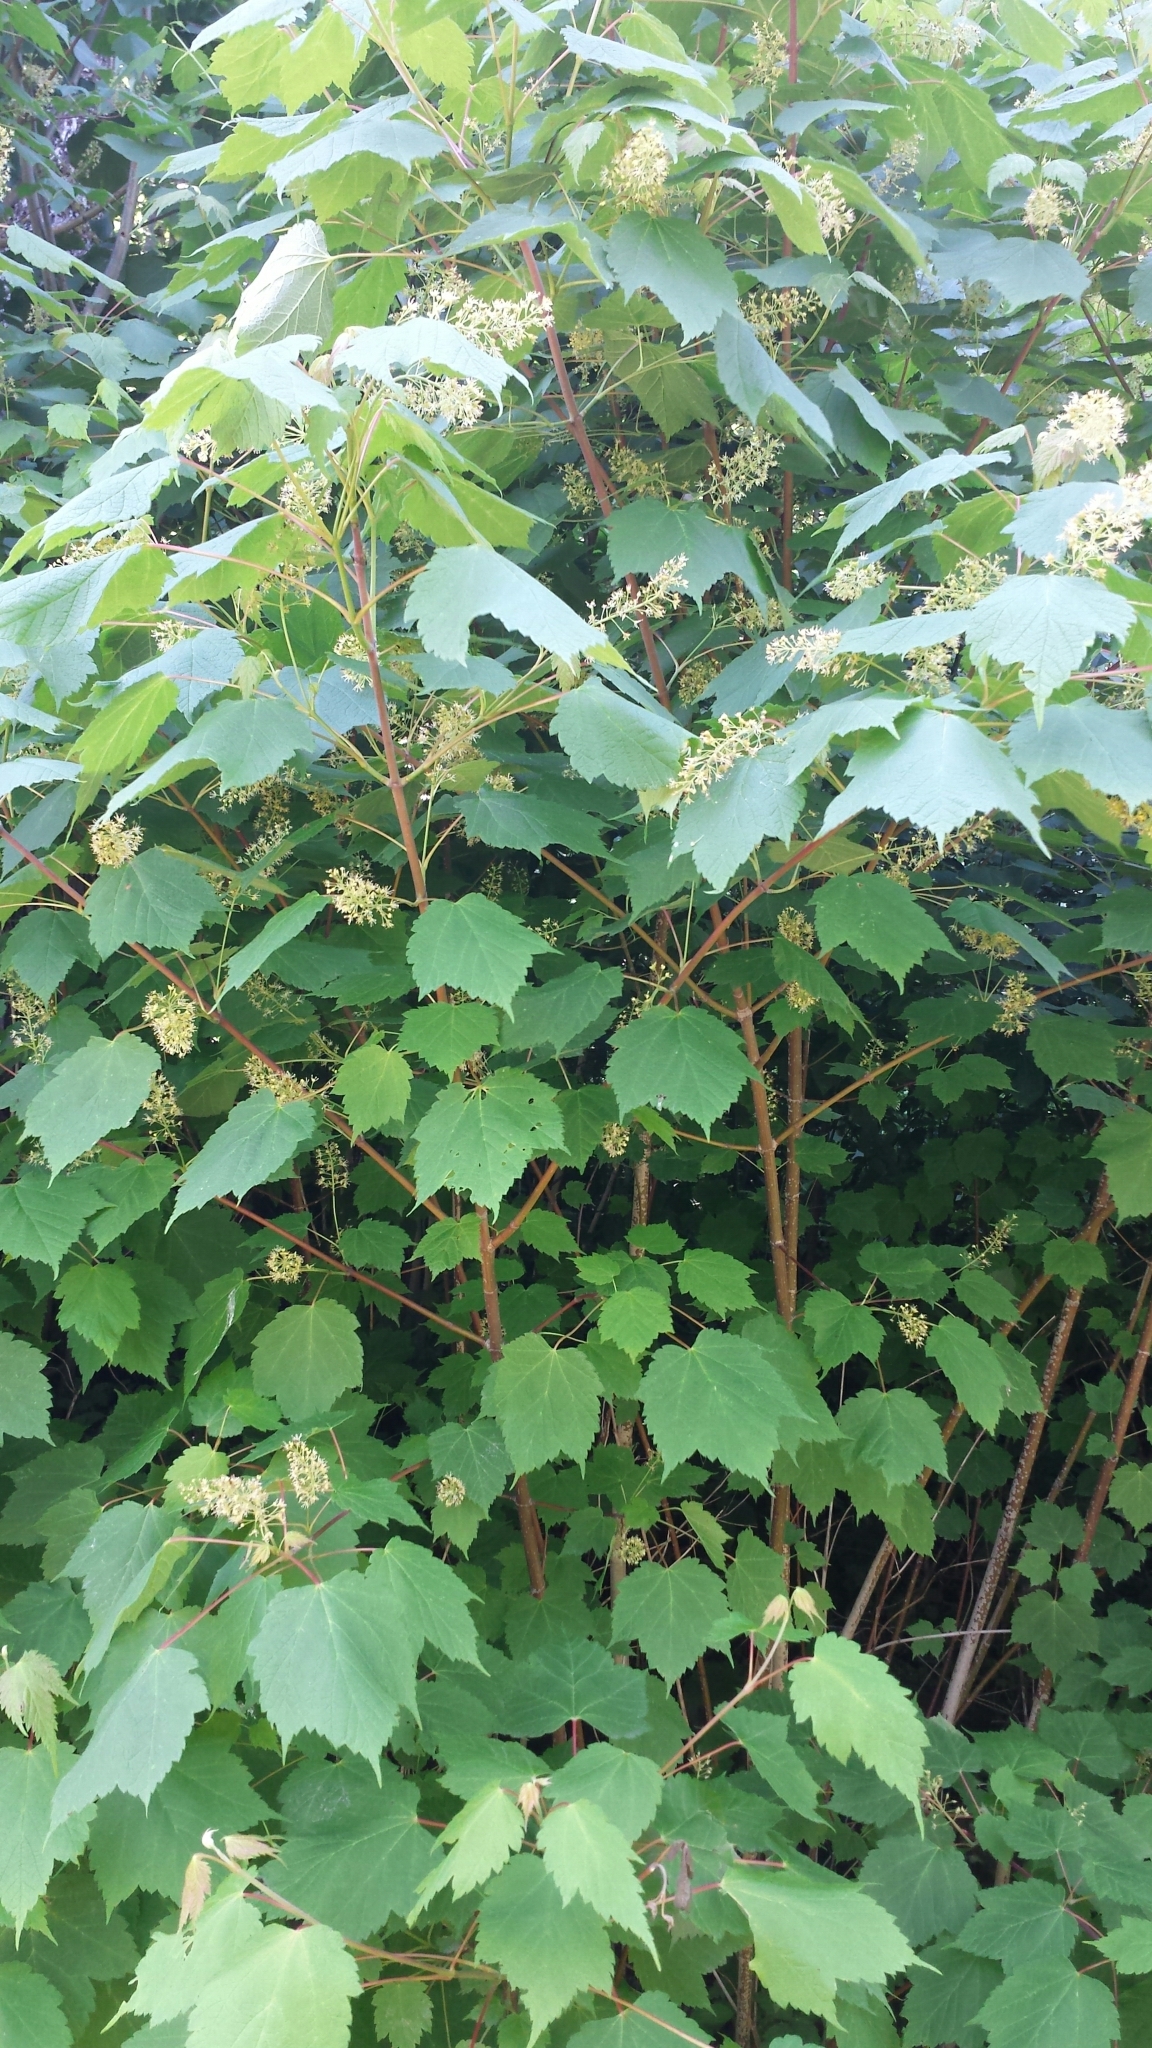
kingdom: Plantae
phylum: Tracheophyta
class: Magnoliopsida
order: Sapindales
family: Sapindaceae
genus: Acer
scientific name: Acer spicatum
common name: Mountain maple
